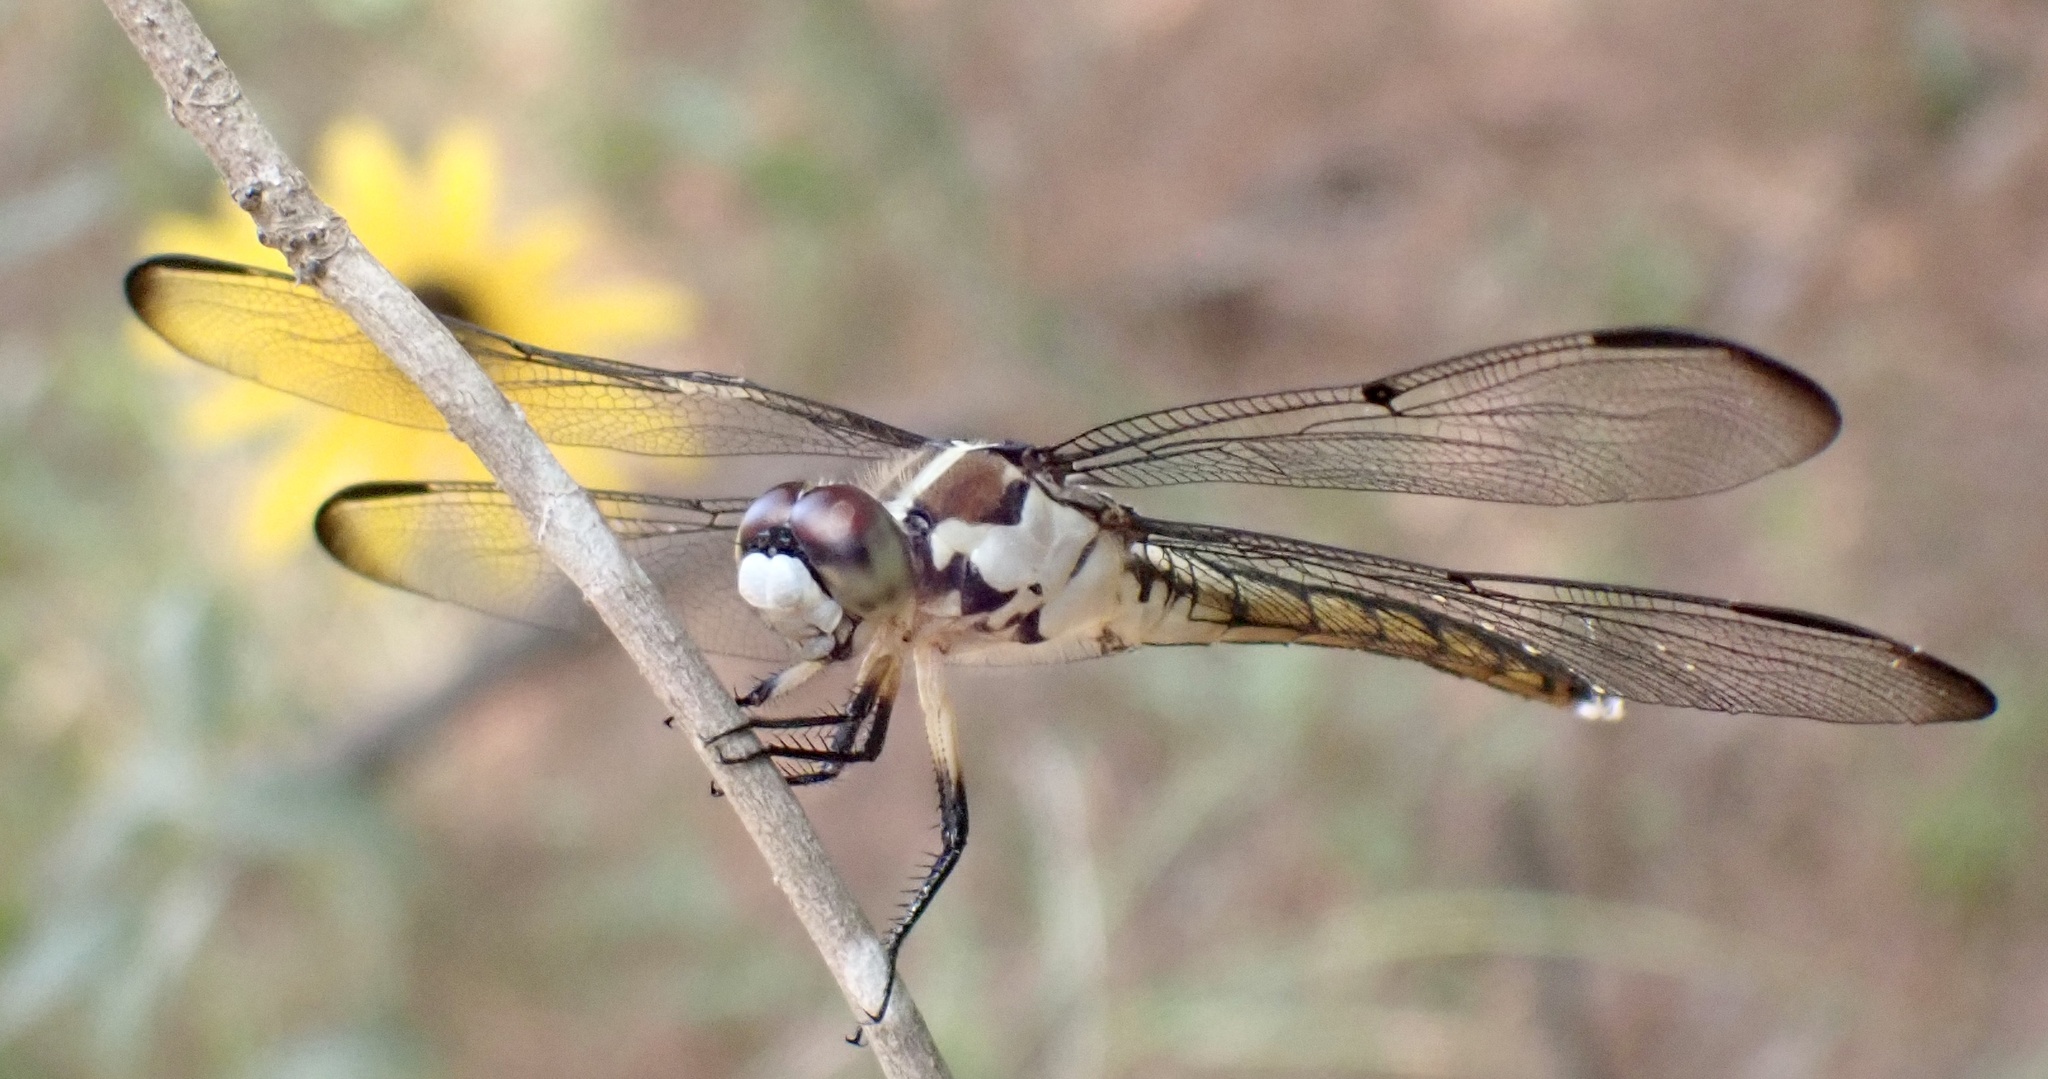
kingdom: Animalia
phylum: Arthropoda
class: Insecta
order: Odonata
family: Libellulidae
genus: Libellula
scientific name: Libellula vibrans
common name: Great blue skimmer
